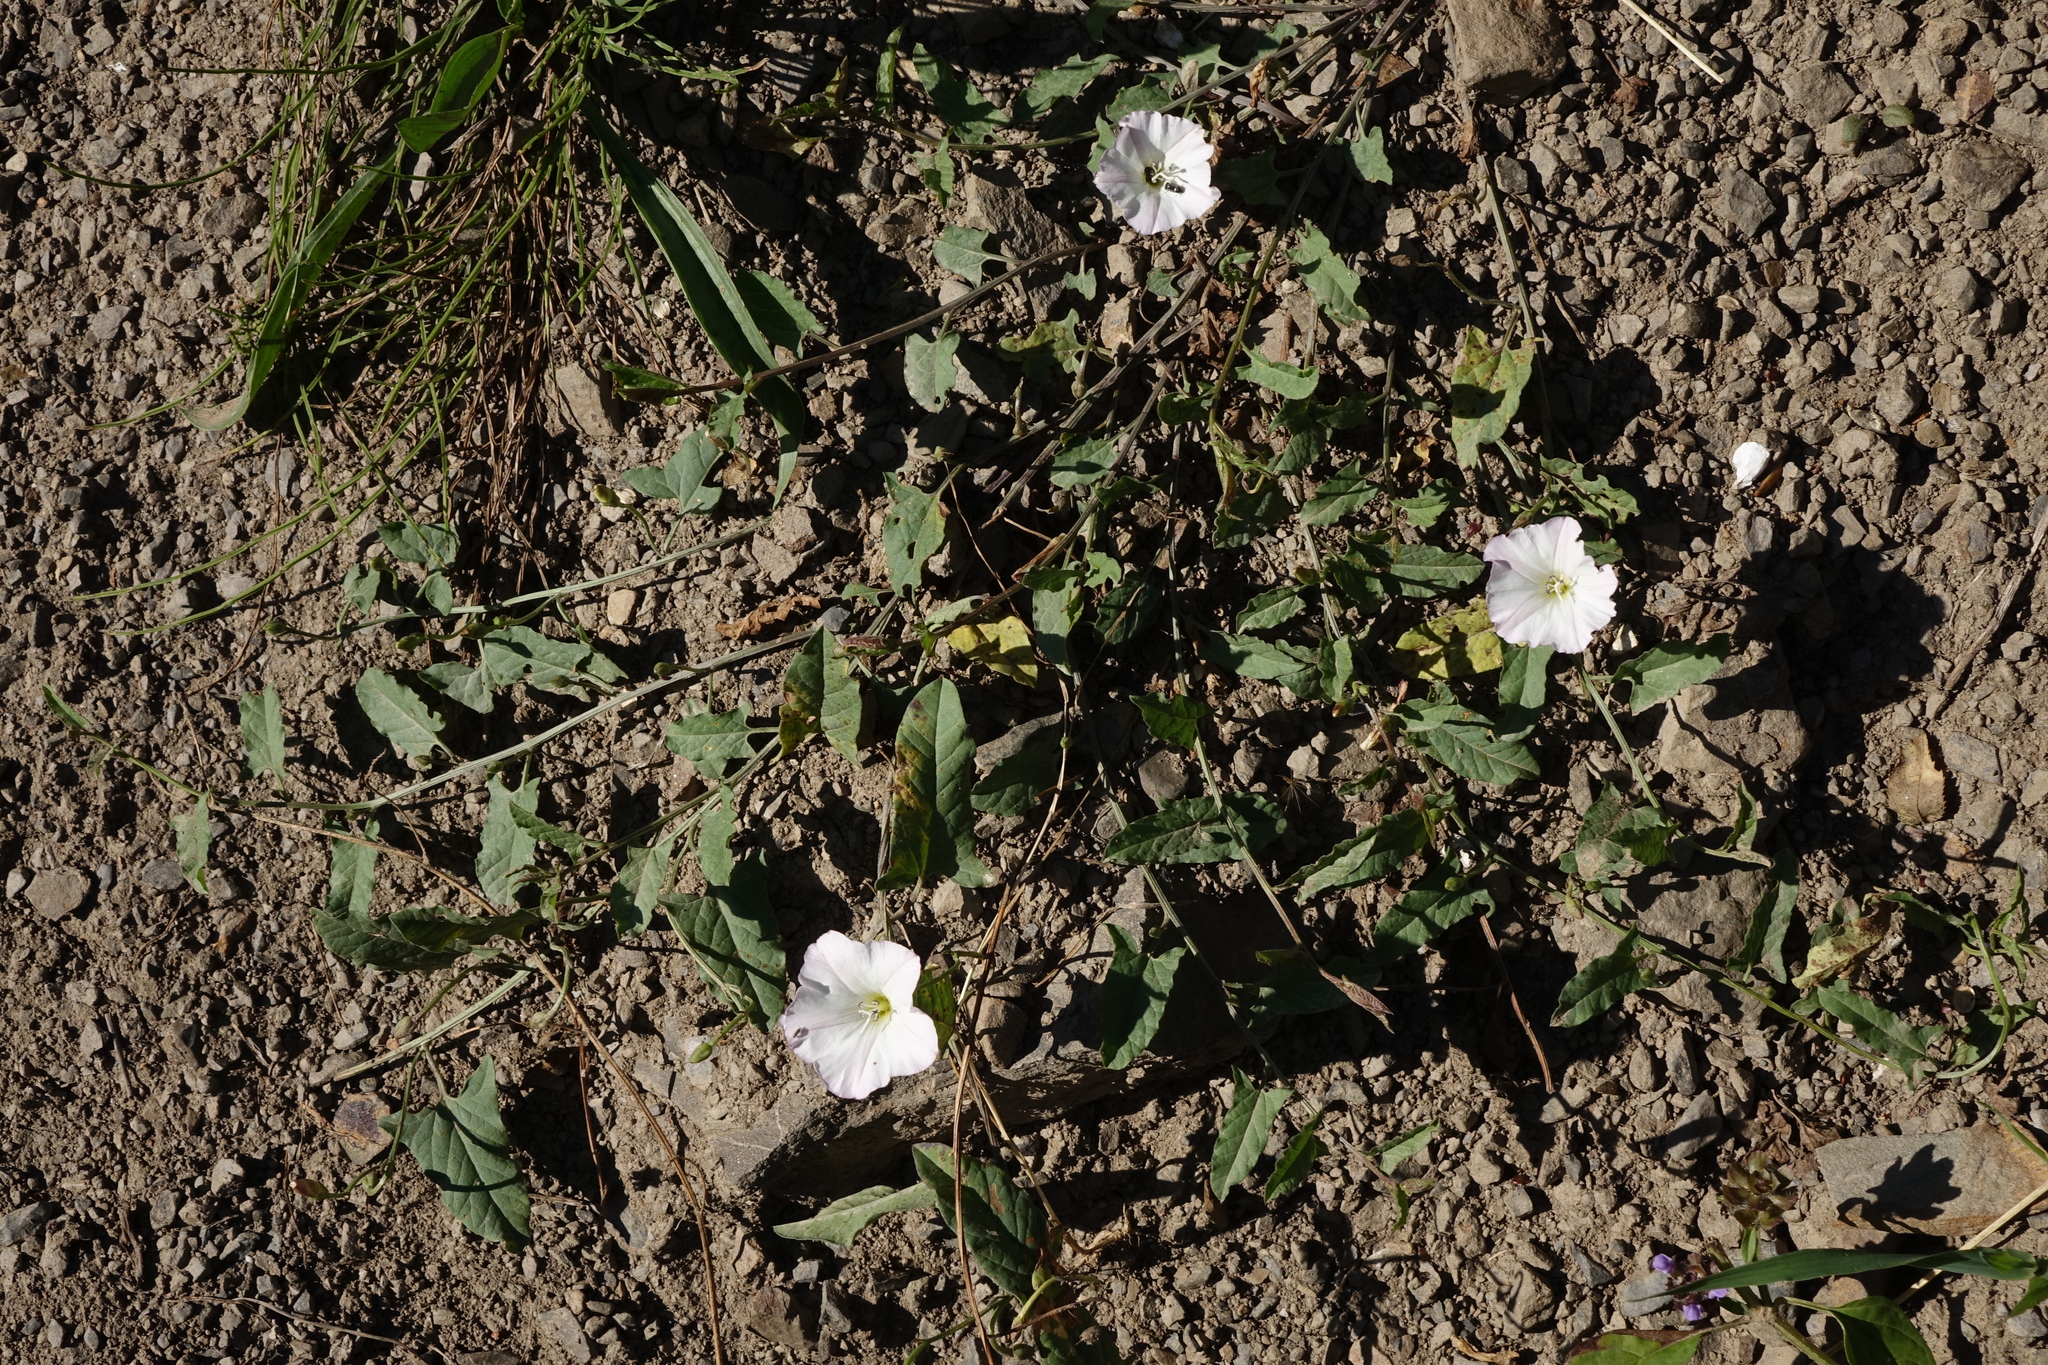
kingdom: Plantae
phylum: Tracheophyta
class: Magnoliopsida
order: Solanales
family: Convolvulaceae
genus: Convolvulus
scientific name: Convolvulus arvensis
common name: Field bindweed
